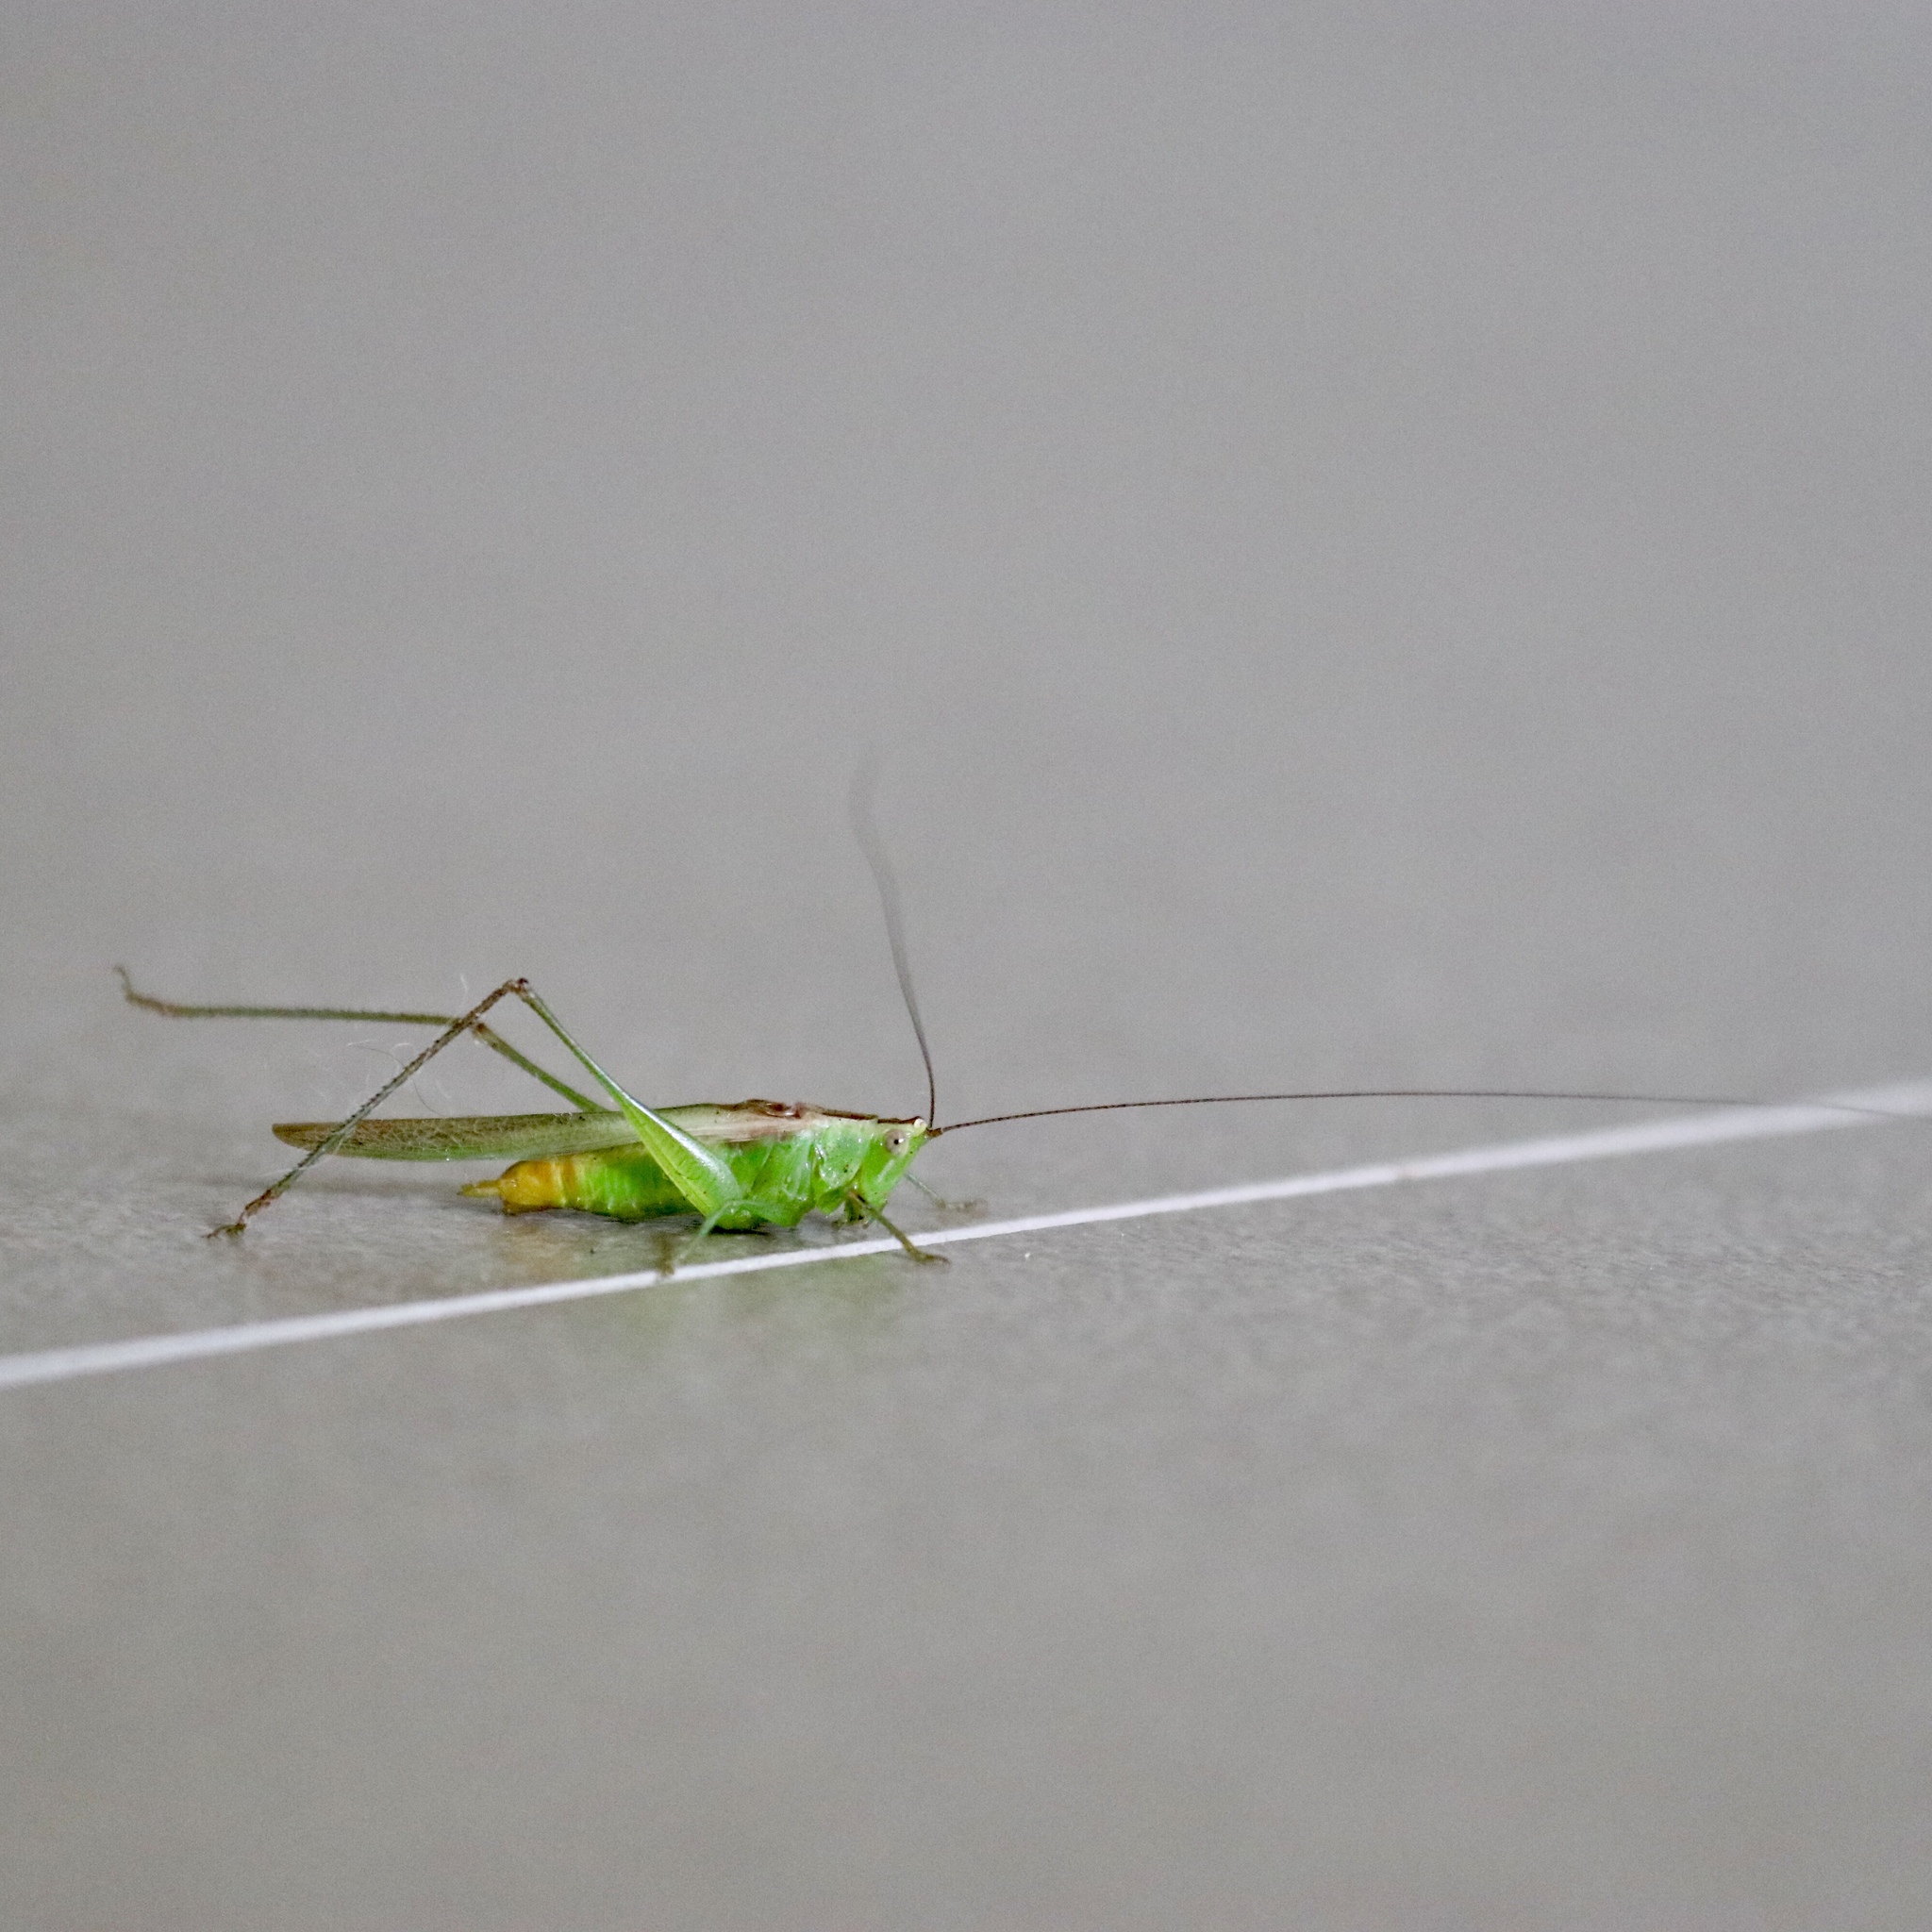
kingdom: Animalia
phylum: Arthropoda
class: Insecta
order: Orthoptera
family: Tettigoniidae
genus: Conocephalus
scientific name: Conocephalus cinereus
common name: Caribbean meadow katydid
